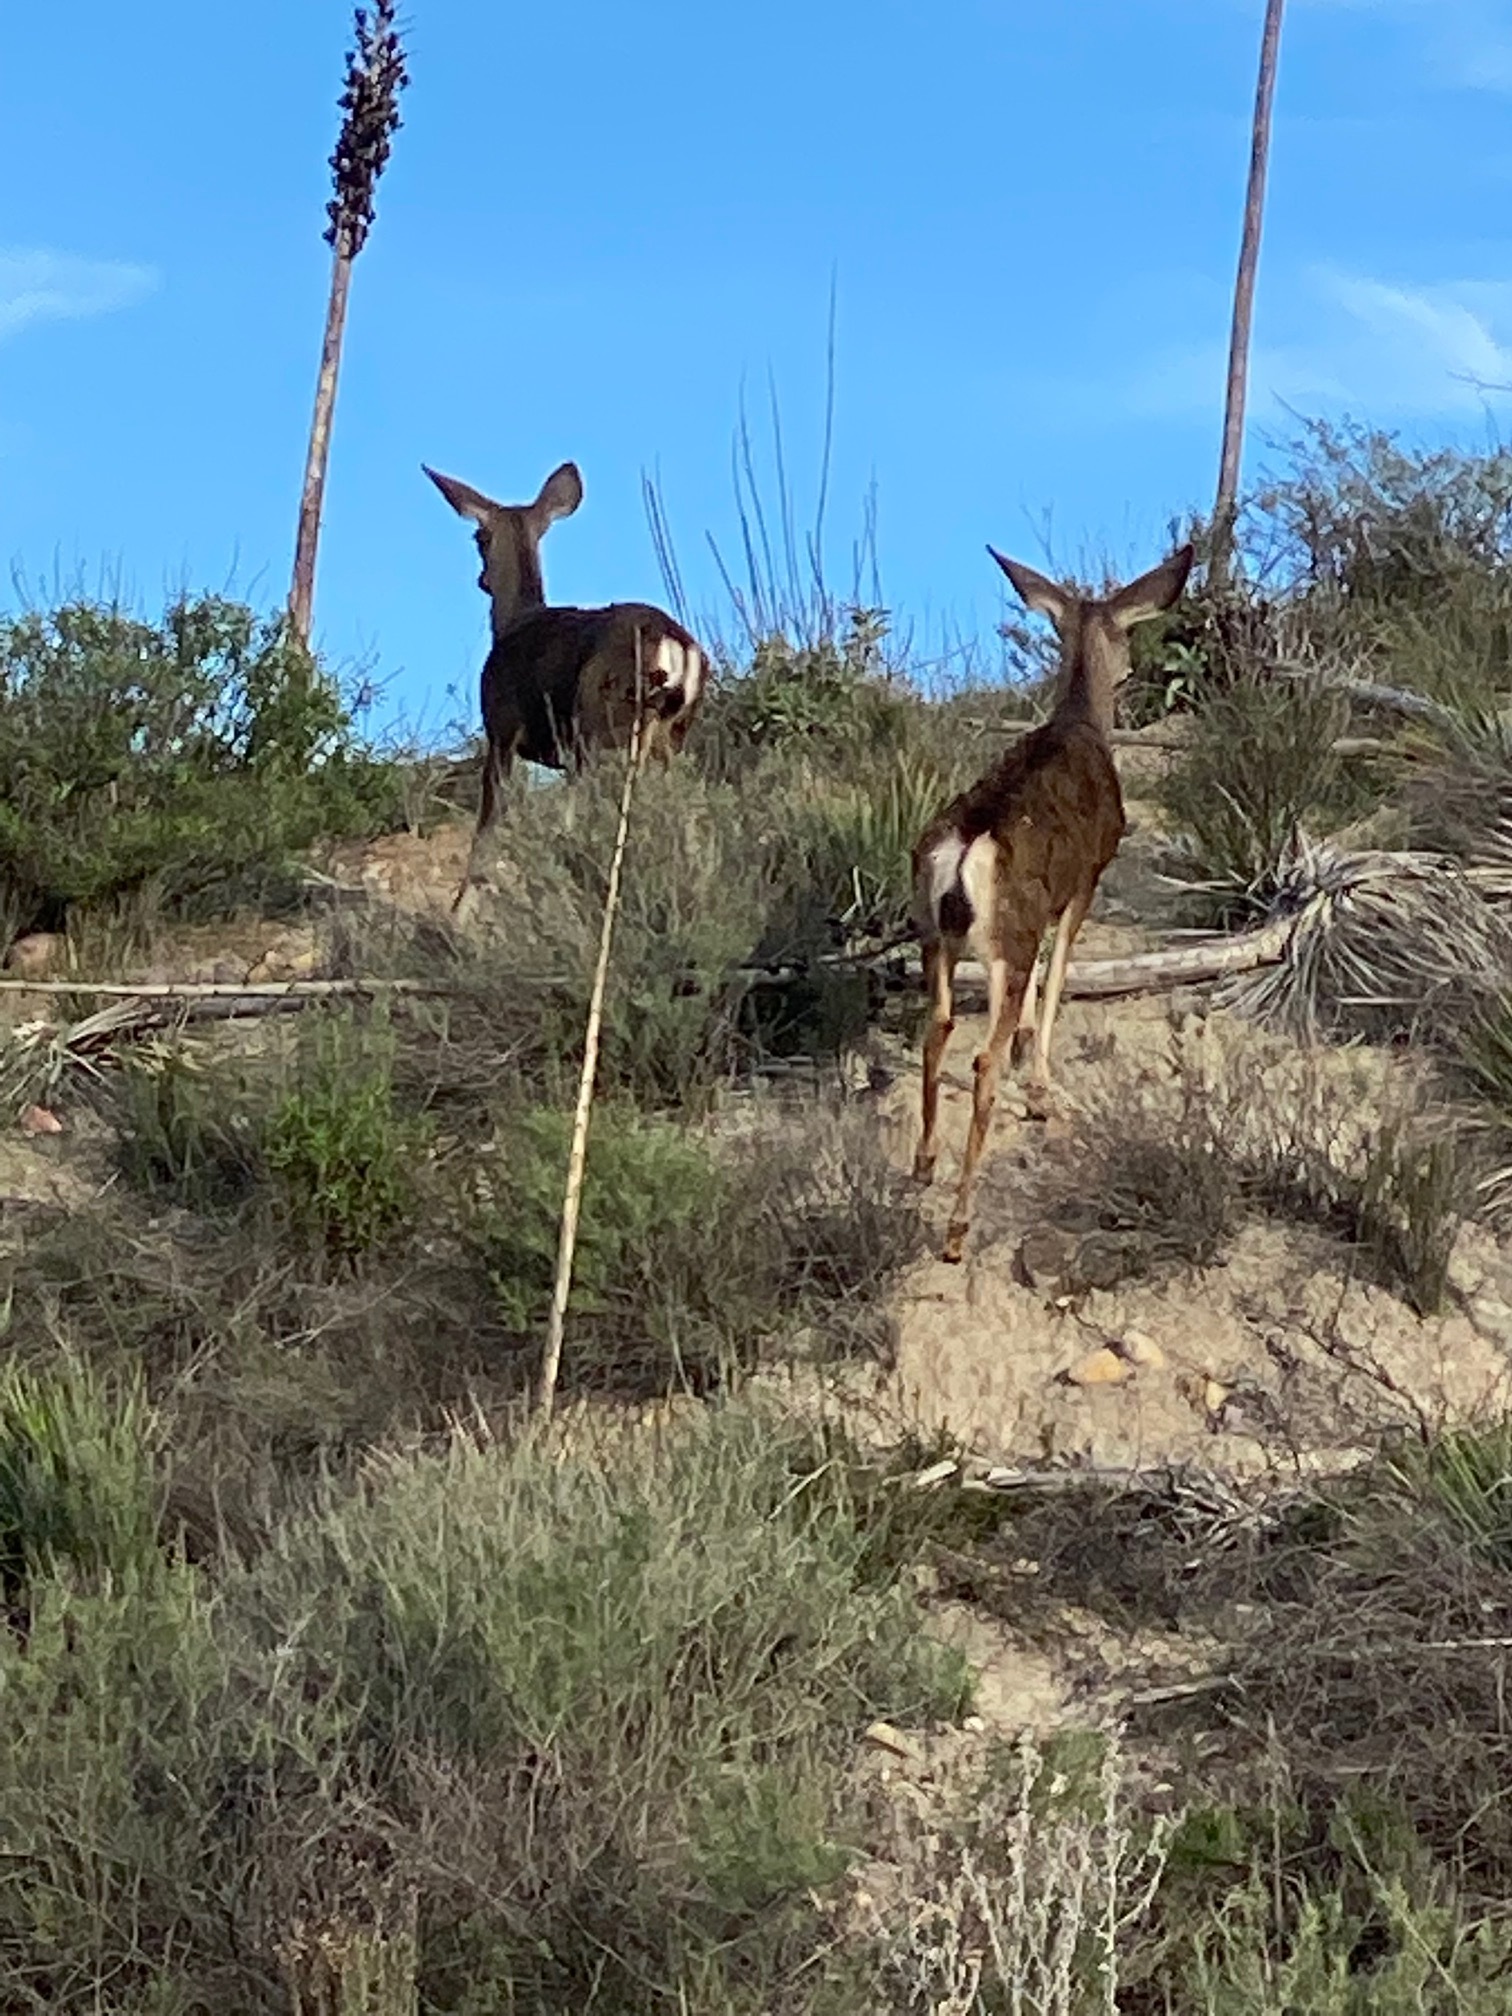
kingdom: Animalia
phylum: Chordata
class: Mammalia
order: Artiodactyla
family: Cervidae
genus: Odocoileus
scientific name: Odocoileus hemionus
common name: Mule deer
